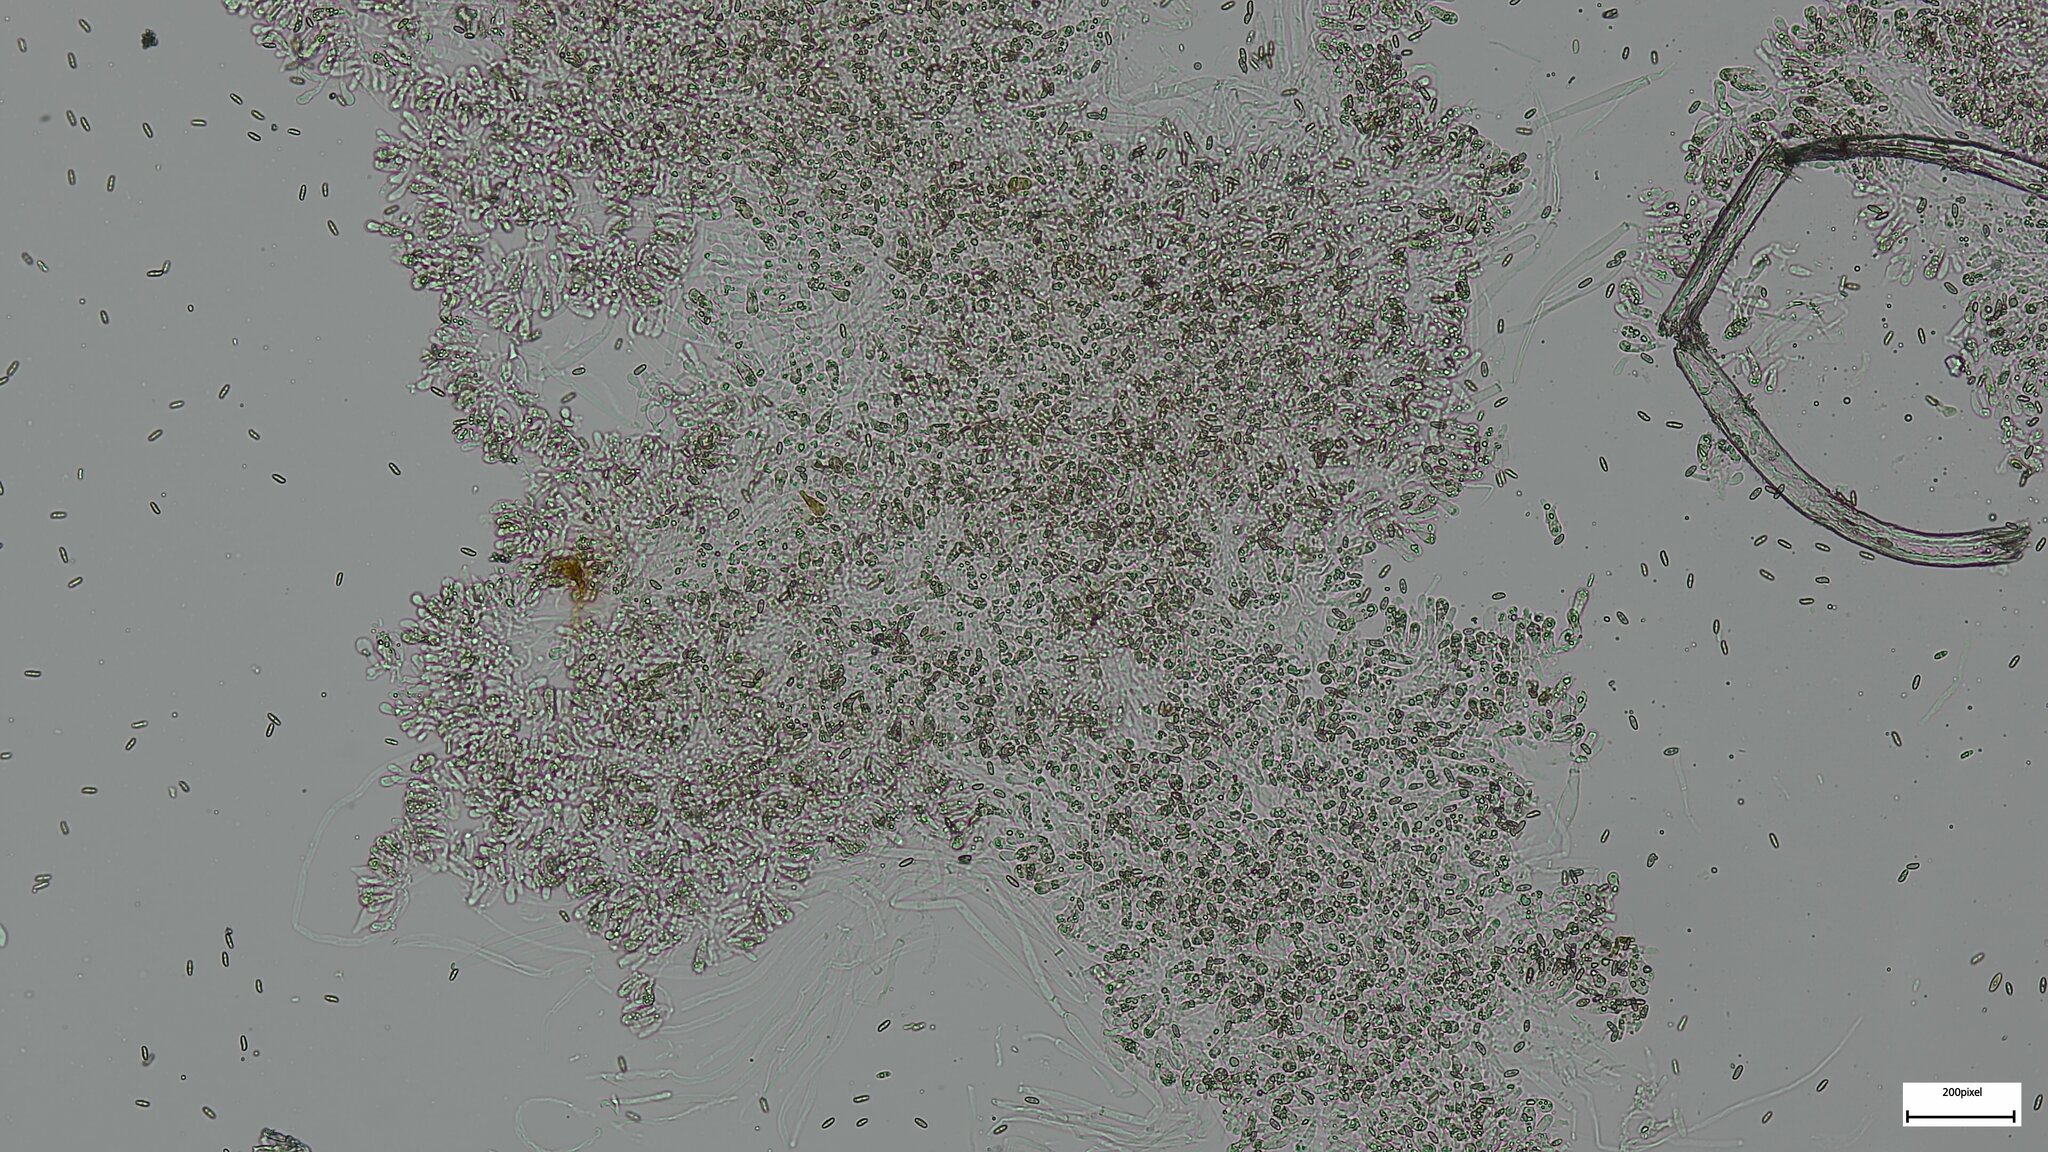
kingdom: Fungi
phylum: Basidiomycota
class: Agaricomycetes
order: Boletales
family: Boletaceae
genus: Lanmaoa
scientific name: Lanmaoa angustispora
